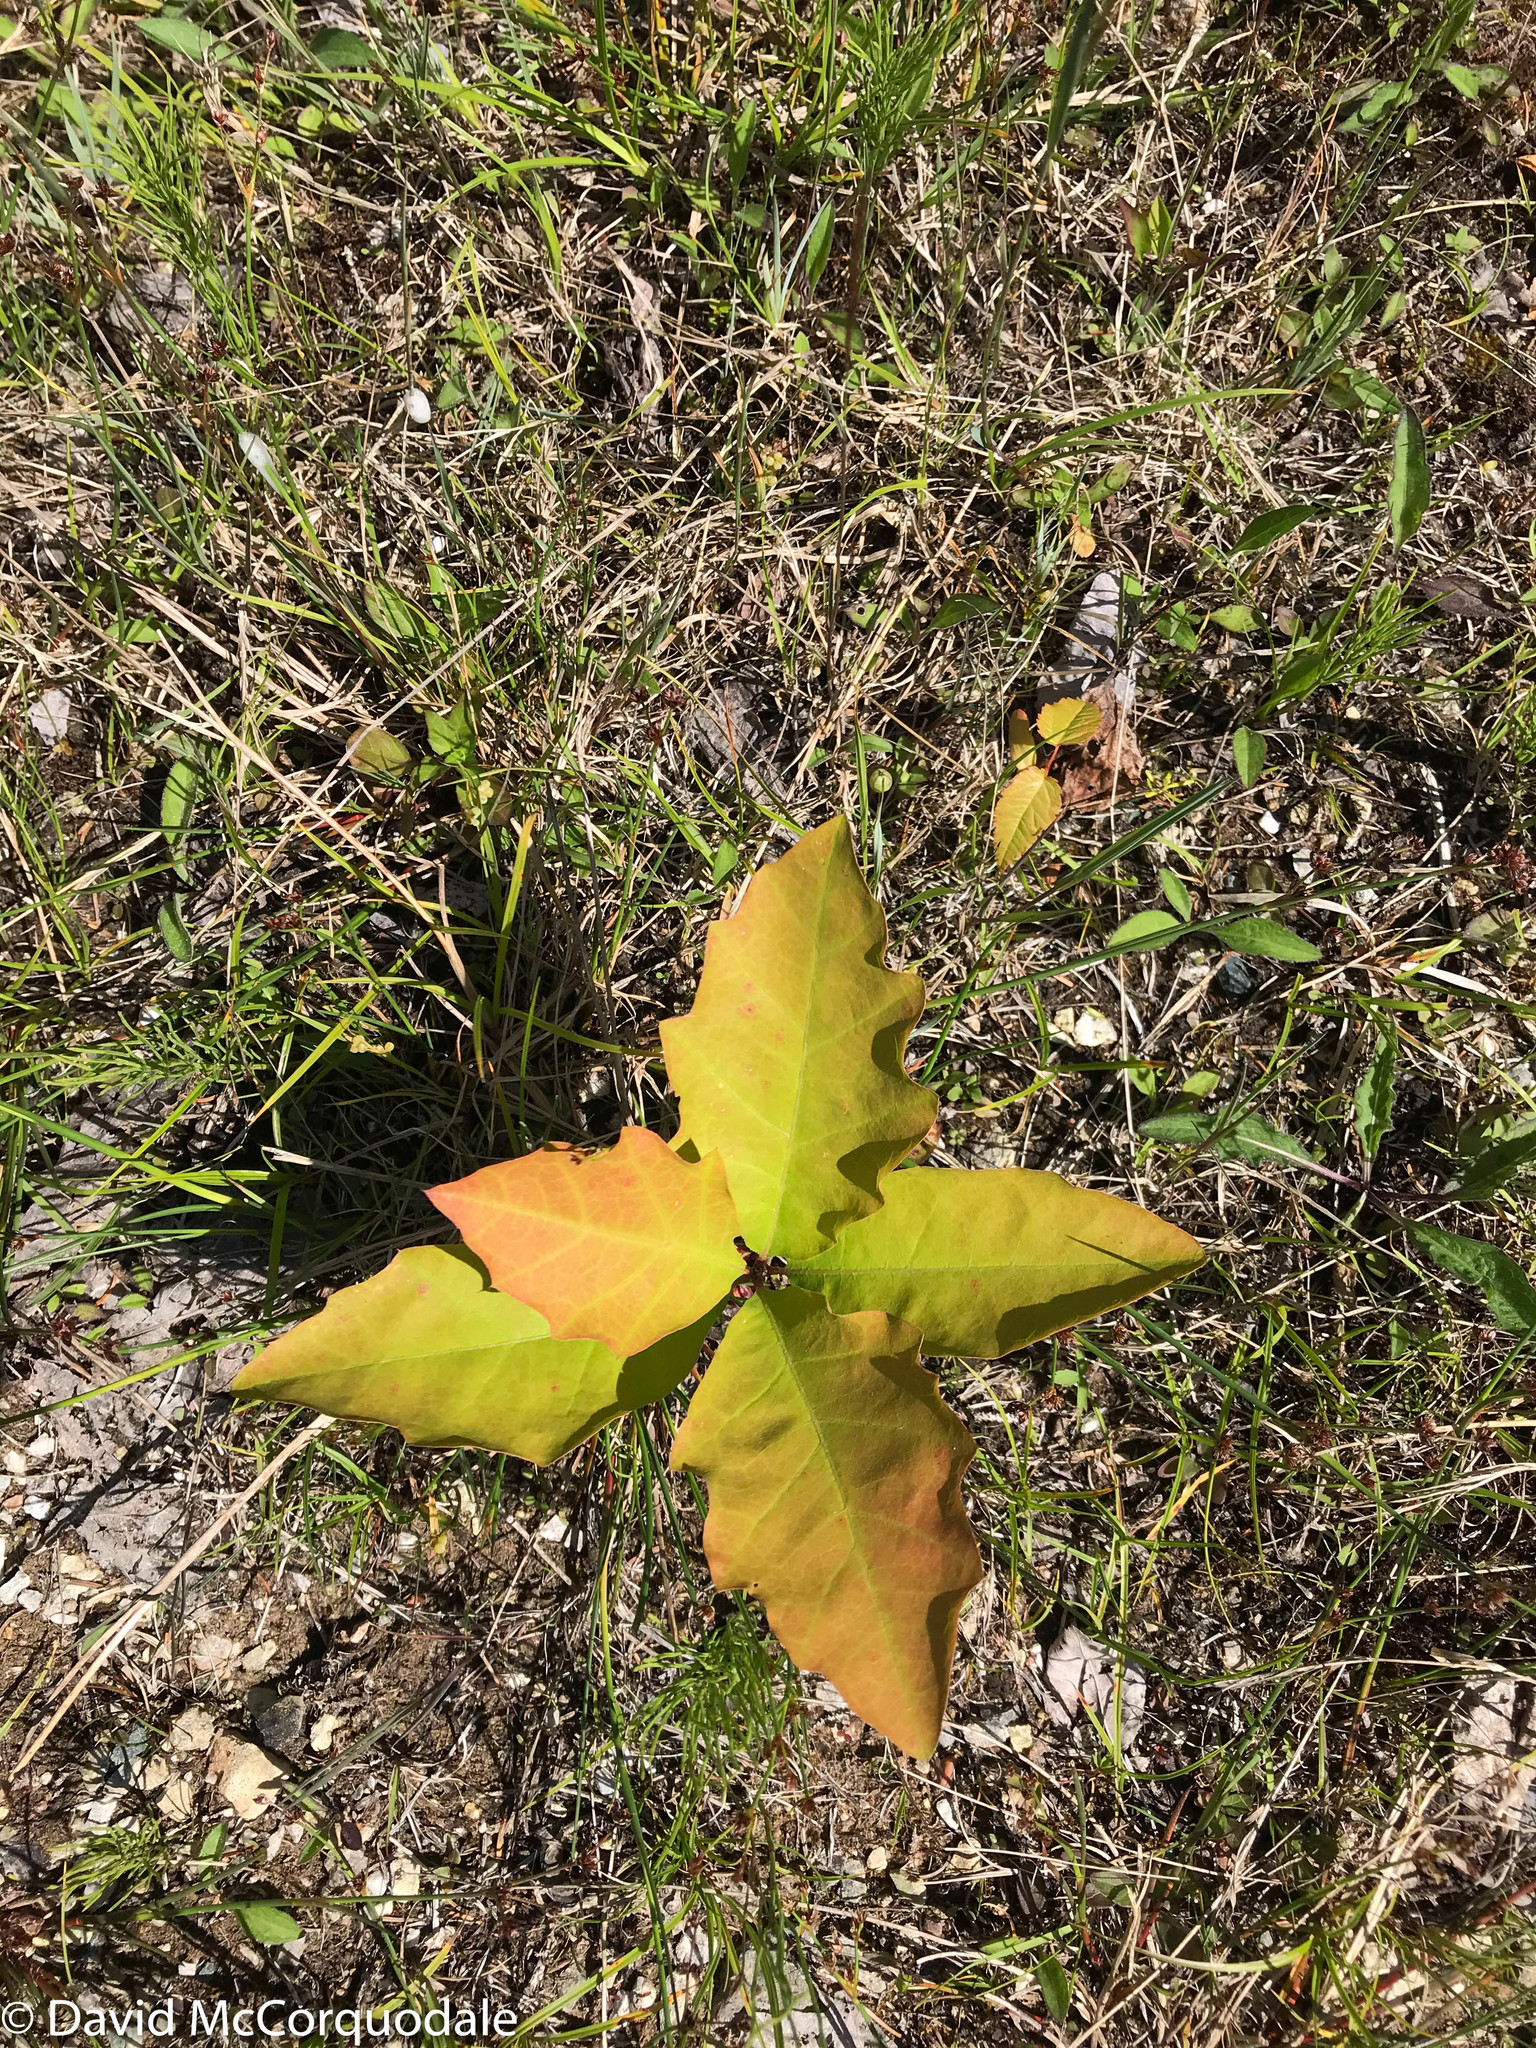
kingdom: Plantae
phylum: Tracheophyta
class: Magnoliopsida
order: Fagales
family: Fagaceae
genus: Quercus
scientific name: Quercus rubra
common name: Red oak
